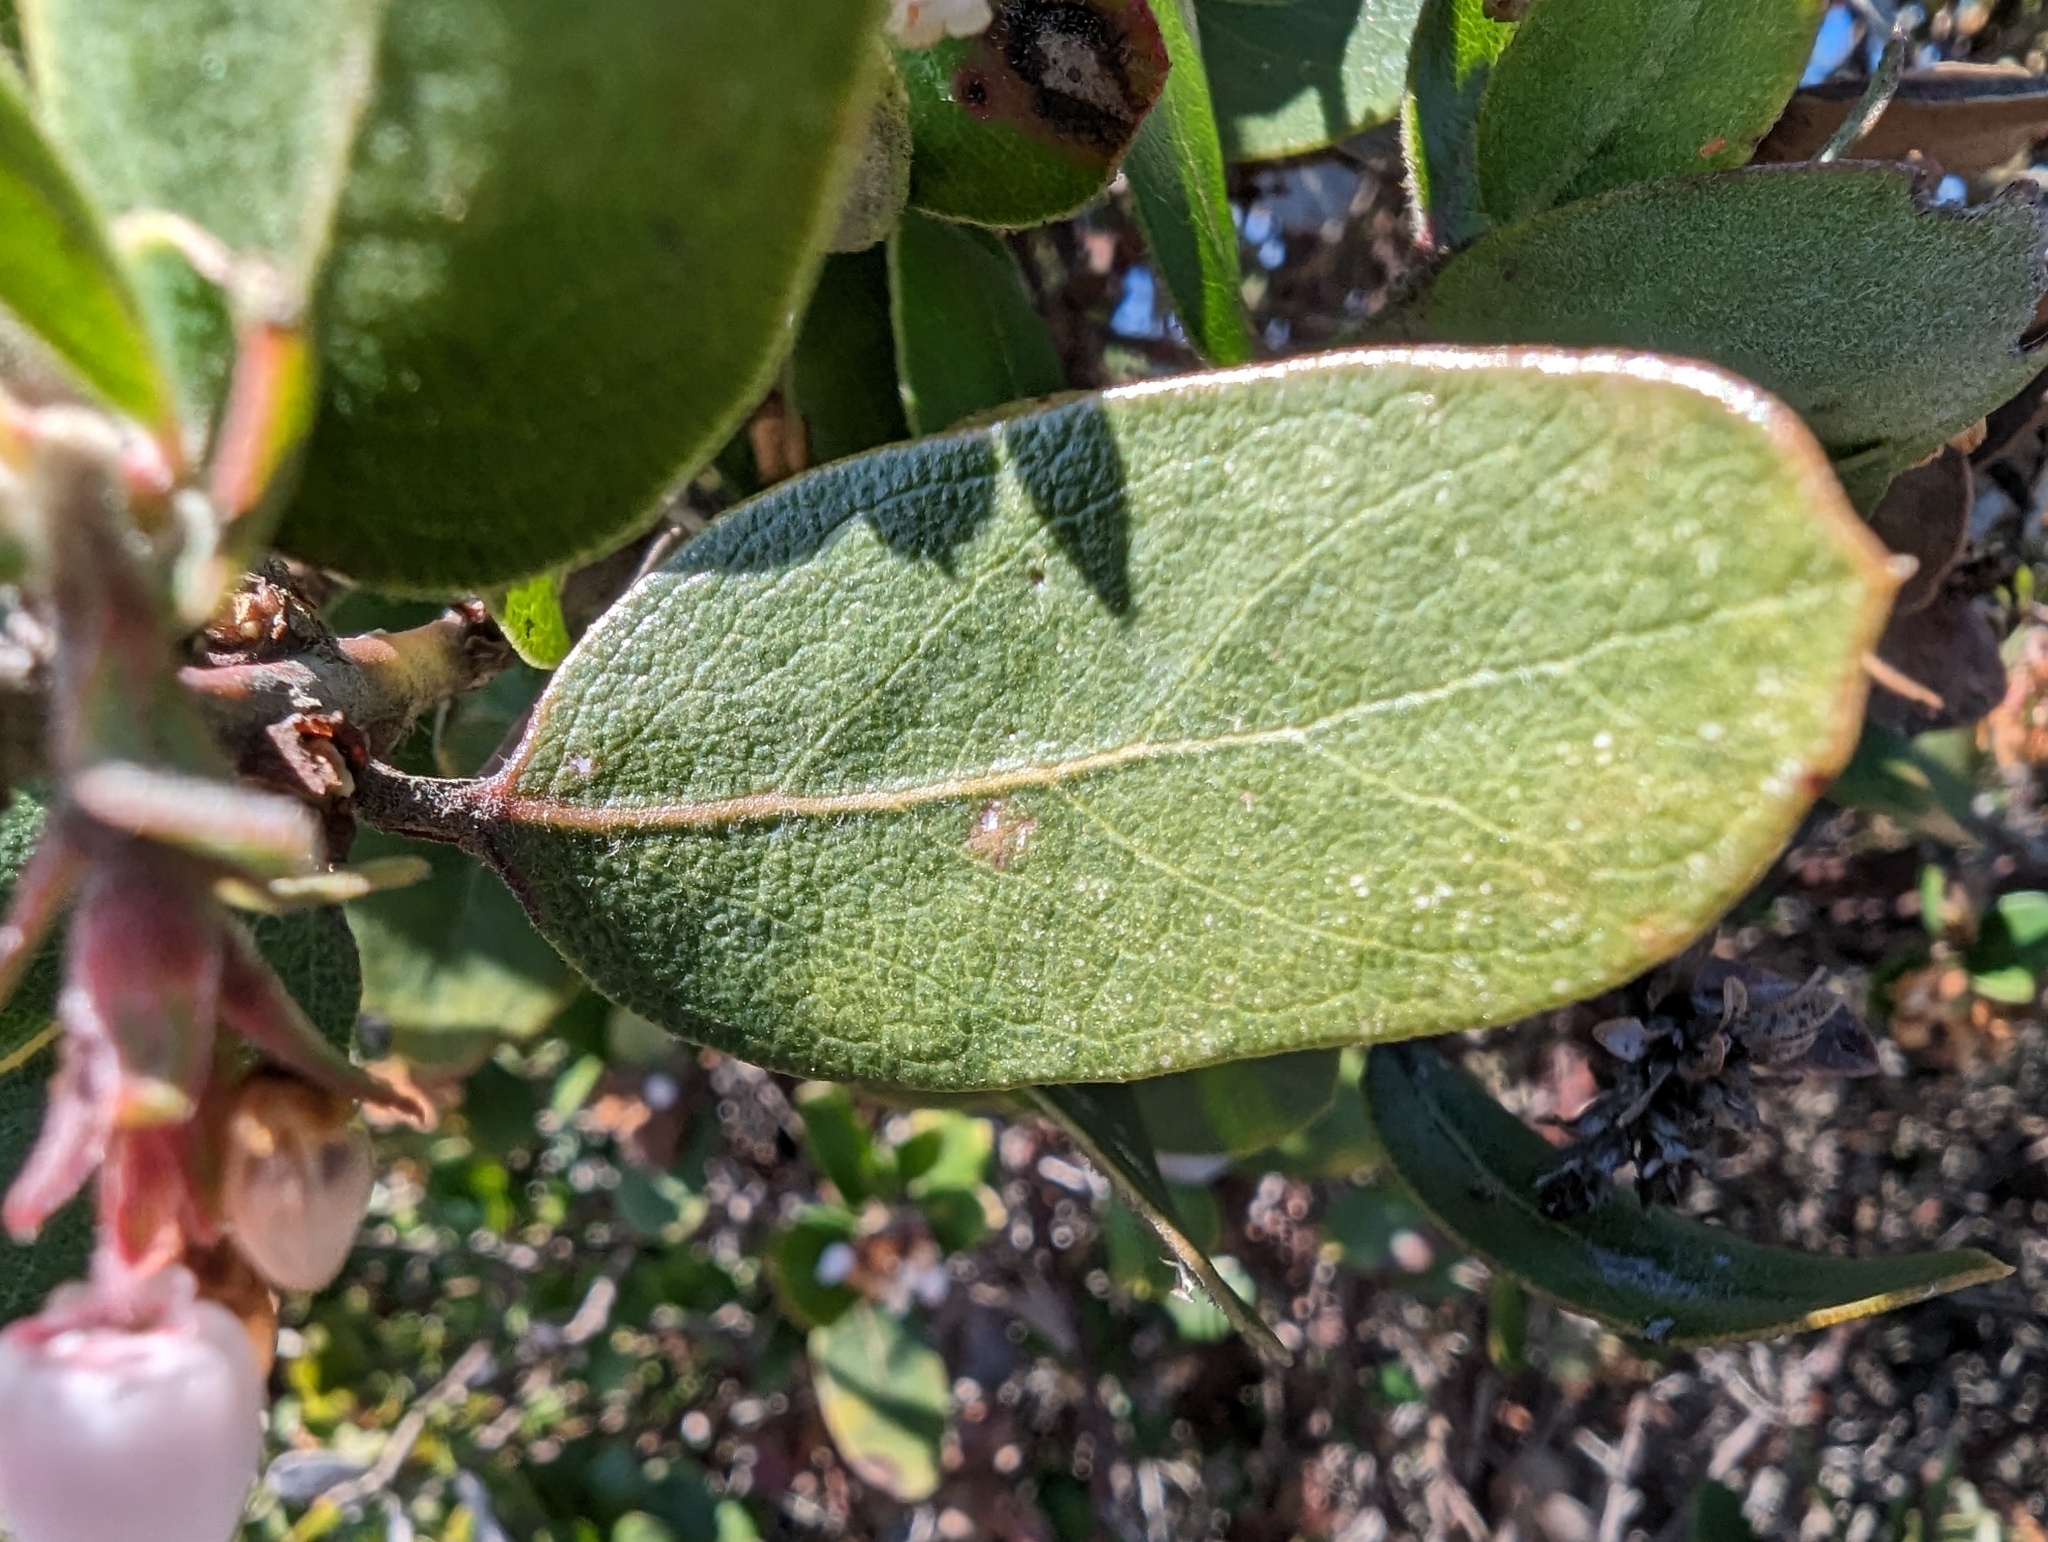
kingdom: Plantae
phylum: Tracheophyta
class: Magnoliopsida
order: Ericales
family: Ericaceae
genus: Arctostaphylos
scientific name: Arctostaphylos tomentosa
